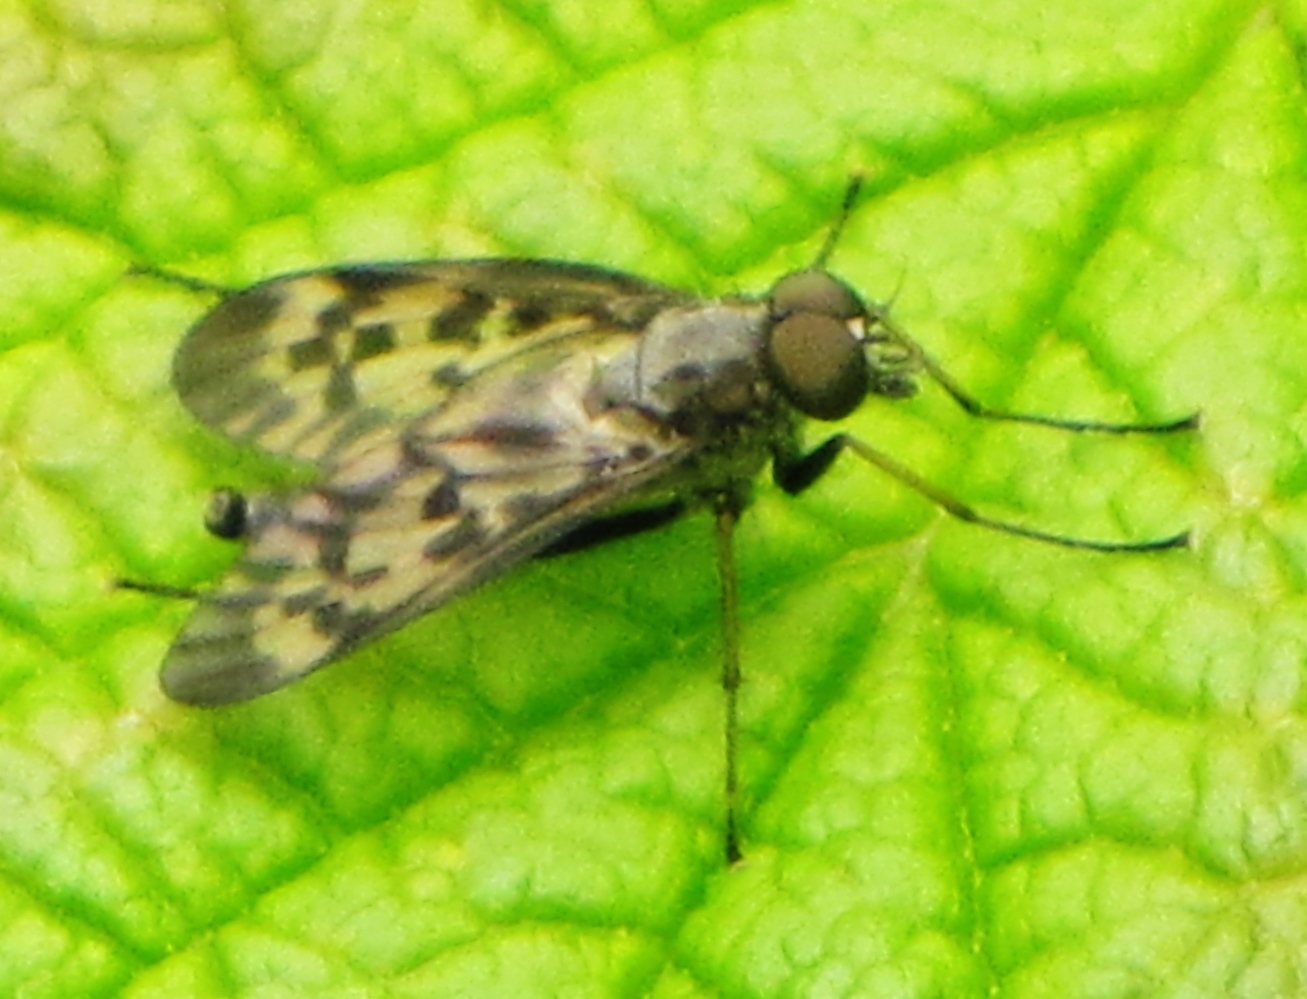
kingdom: Animalia
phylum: Arthropoda
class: Insecta
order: Diptera
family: Rhagionidae
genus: Rhagio
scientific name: Rhagio punctipennis
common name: Lesser variegated snipe fly
